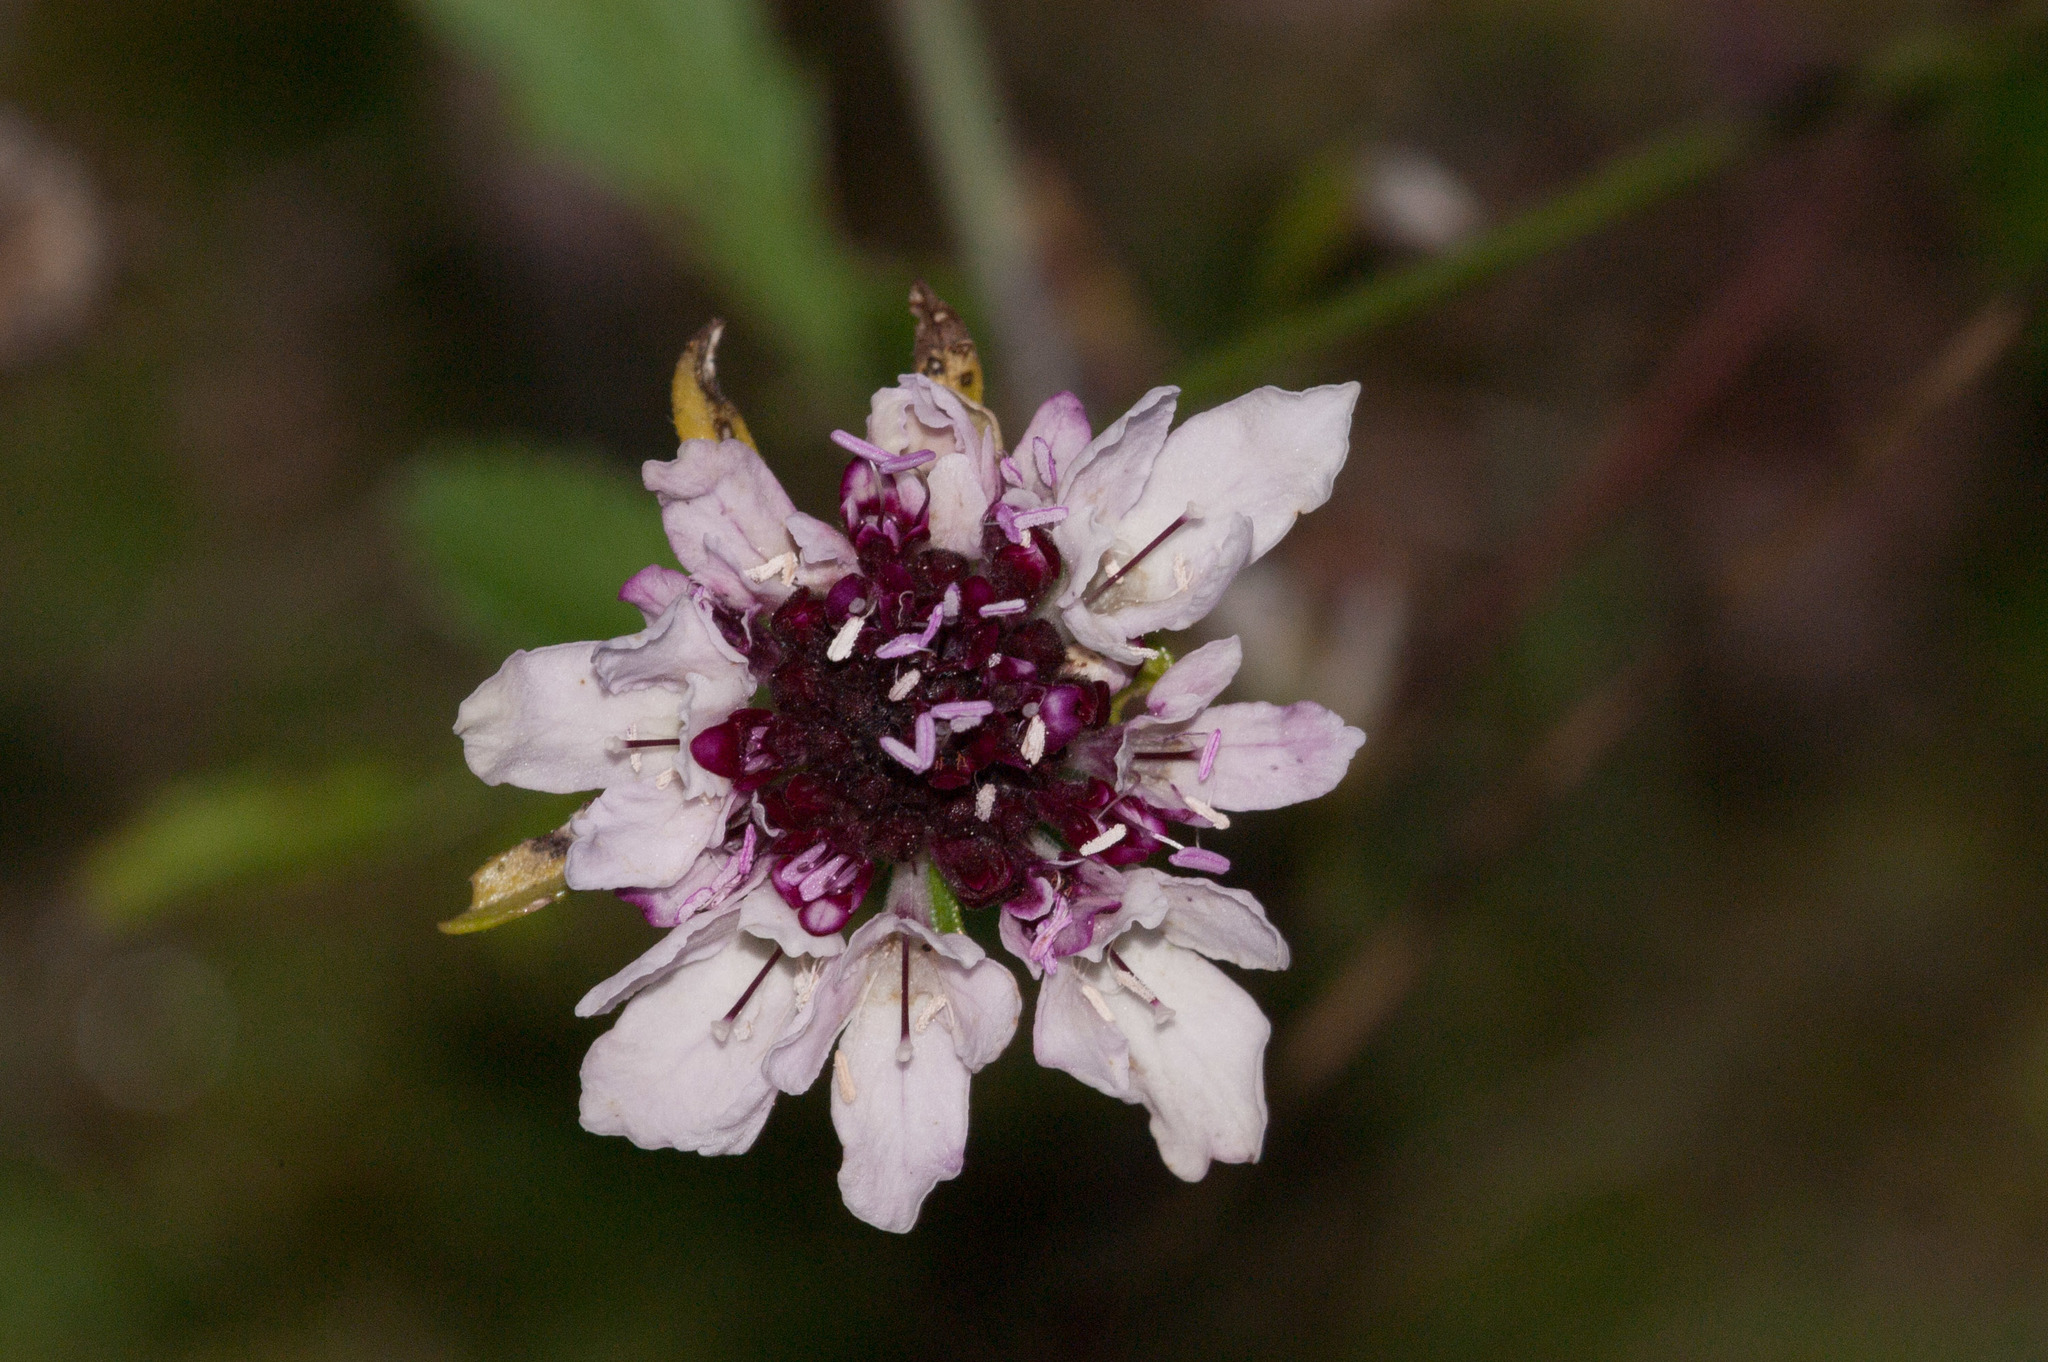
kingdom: Plantae
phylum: Tracheophyta
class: Magnoliopsida
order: Dipsacales
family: Caprifoliaceae
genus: Sixalix
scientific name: Sixalix atropurpurea
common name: Sweet scabious
